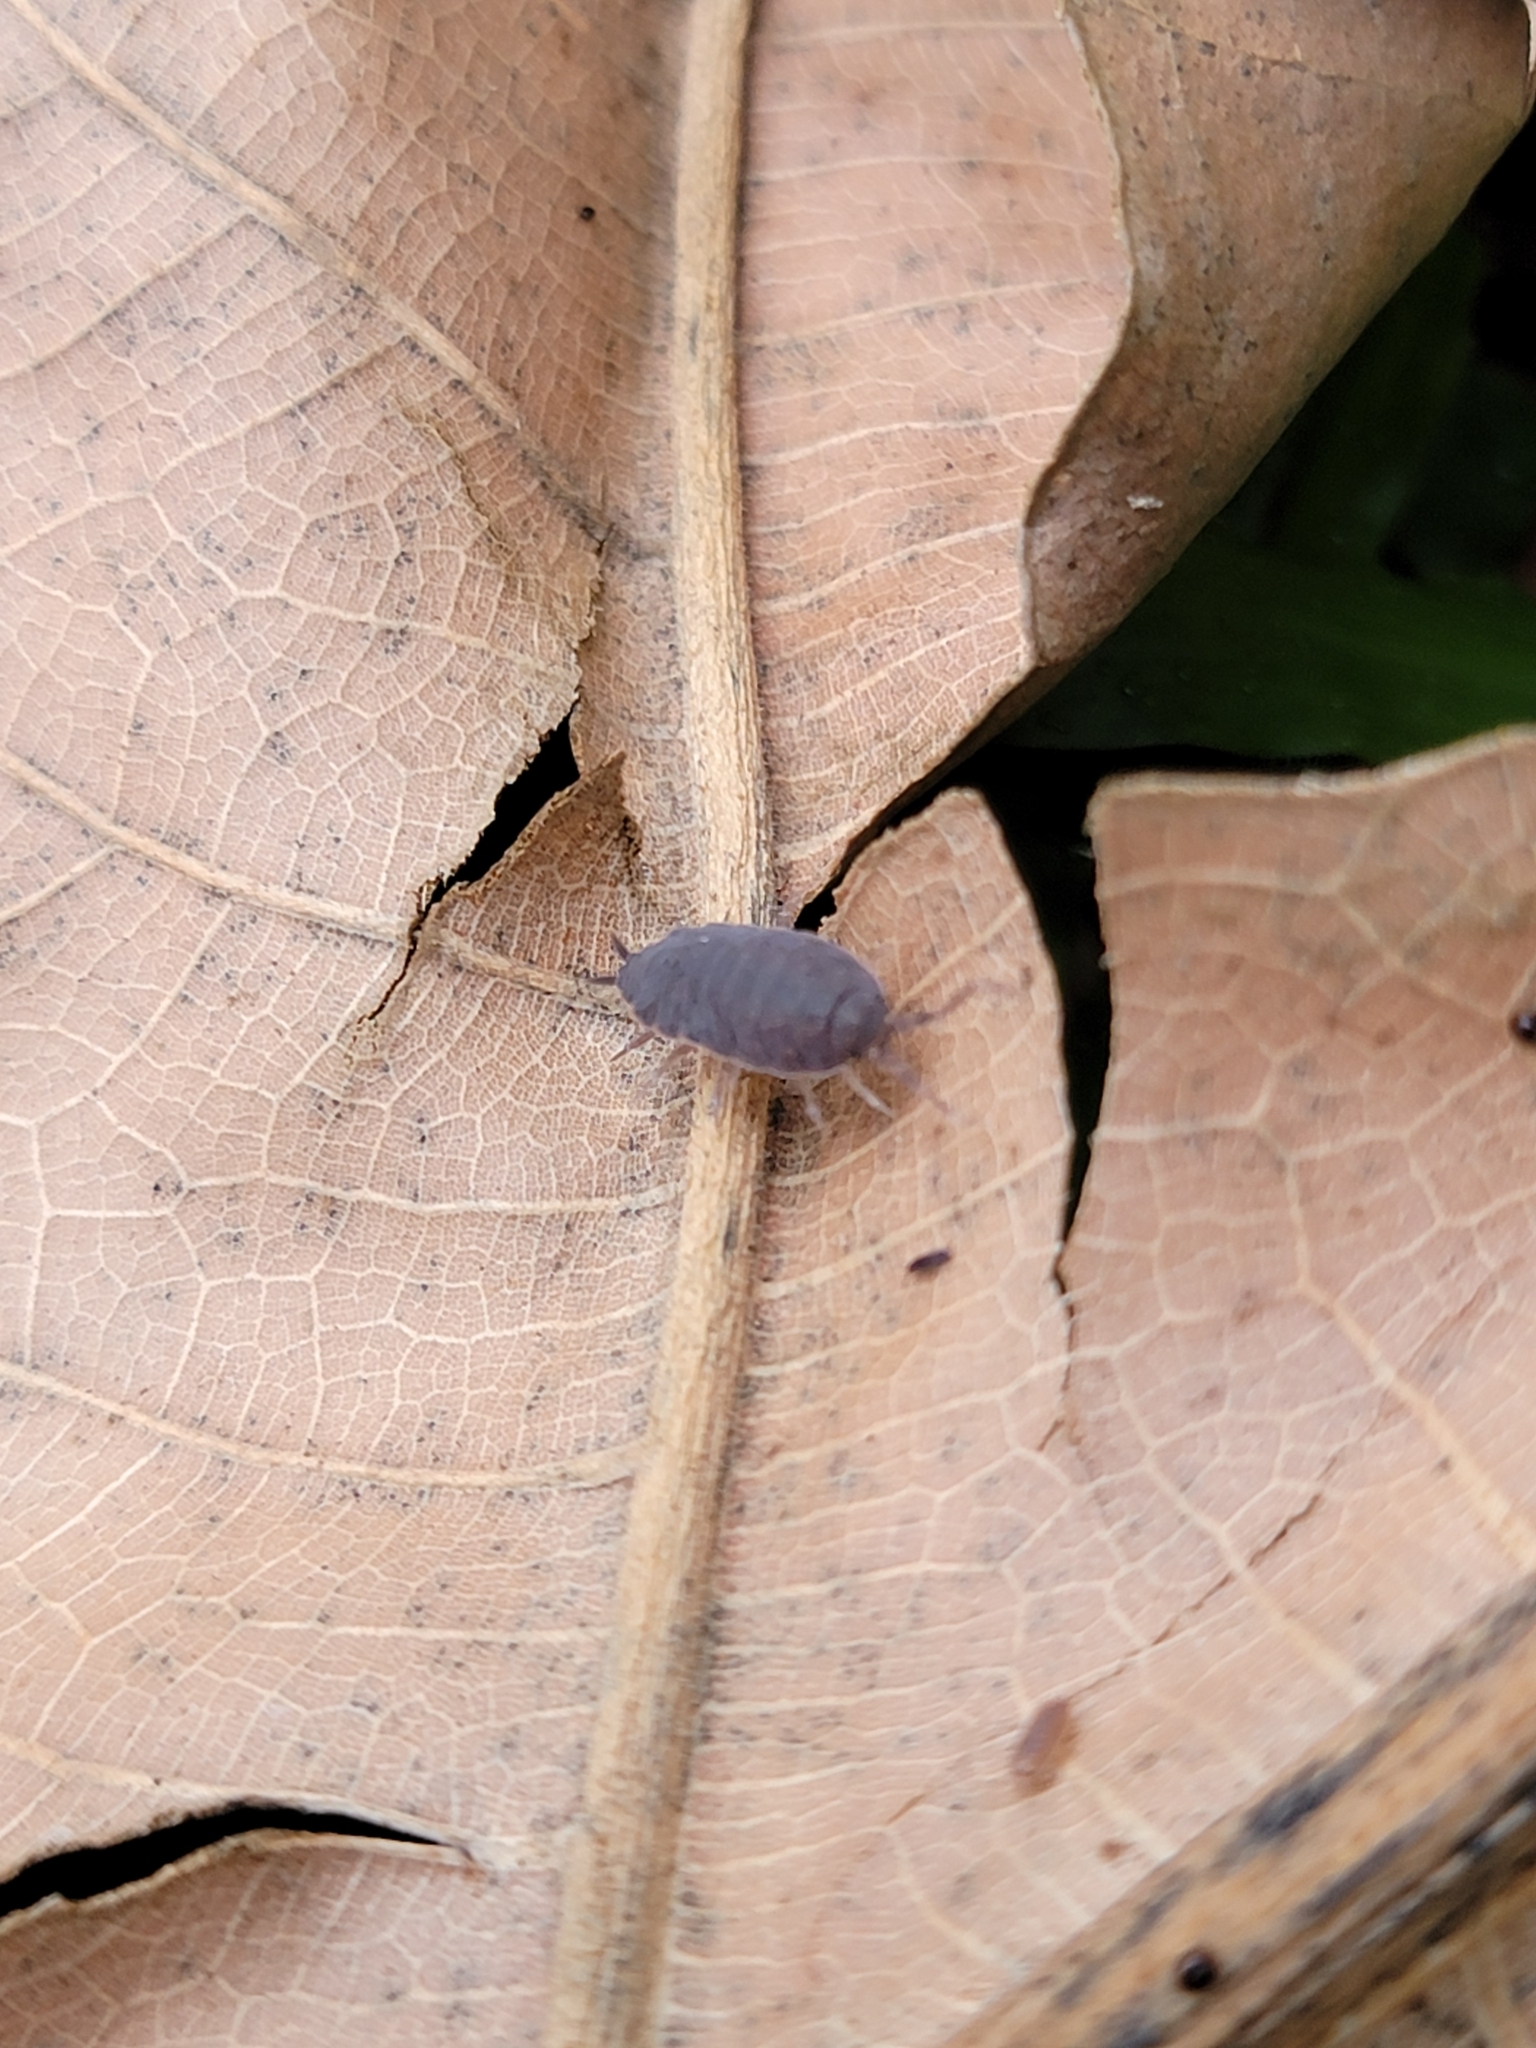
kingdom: Animalia
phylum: Arthropoda
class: Malacostraca
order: Isopoda
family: Porcellionidae
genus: Porcellionides
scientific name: Porcellionides pruinosus
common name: Plum woodlouse
